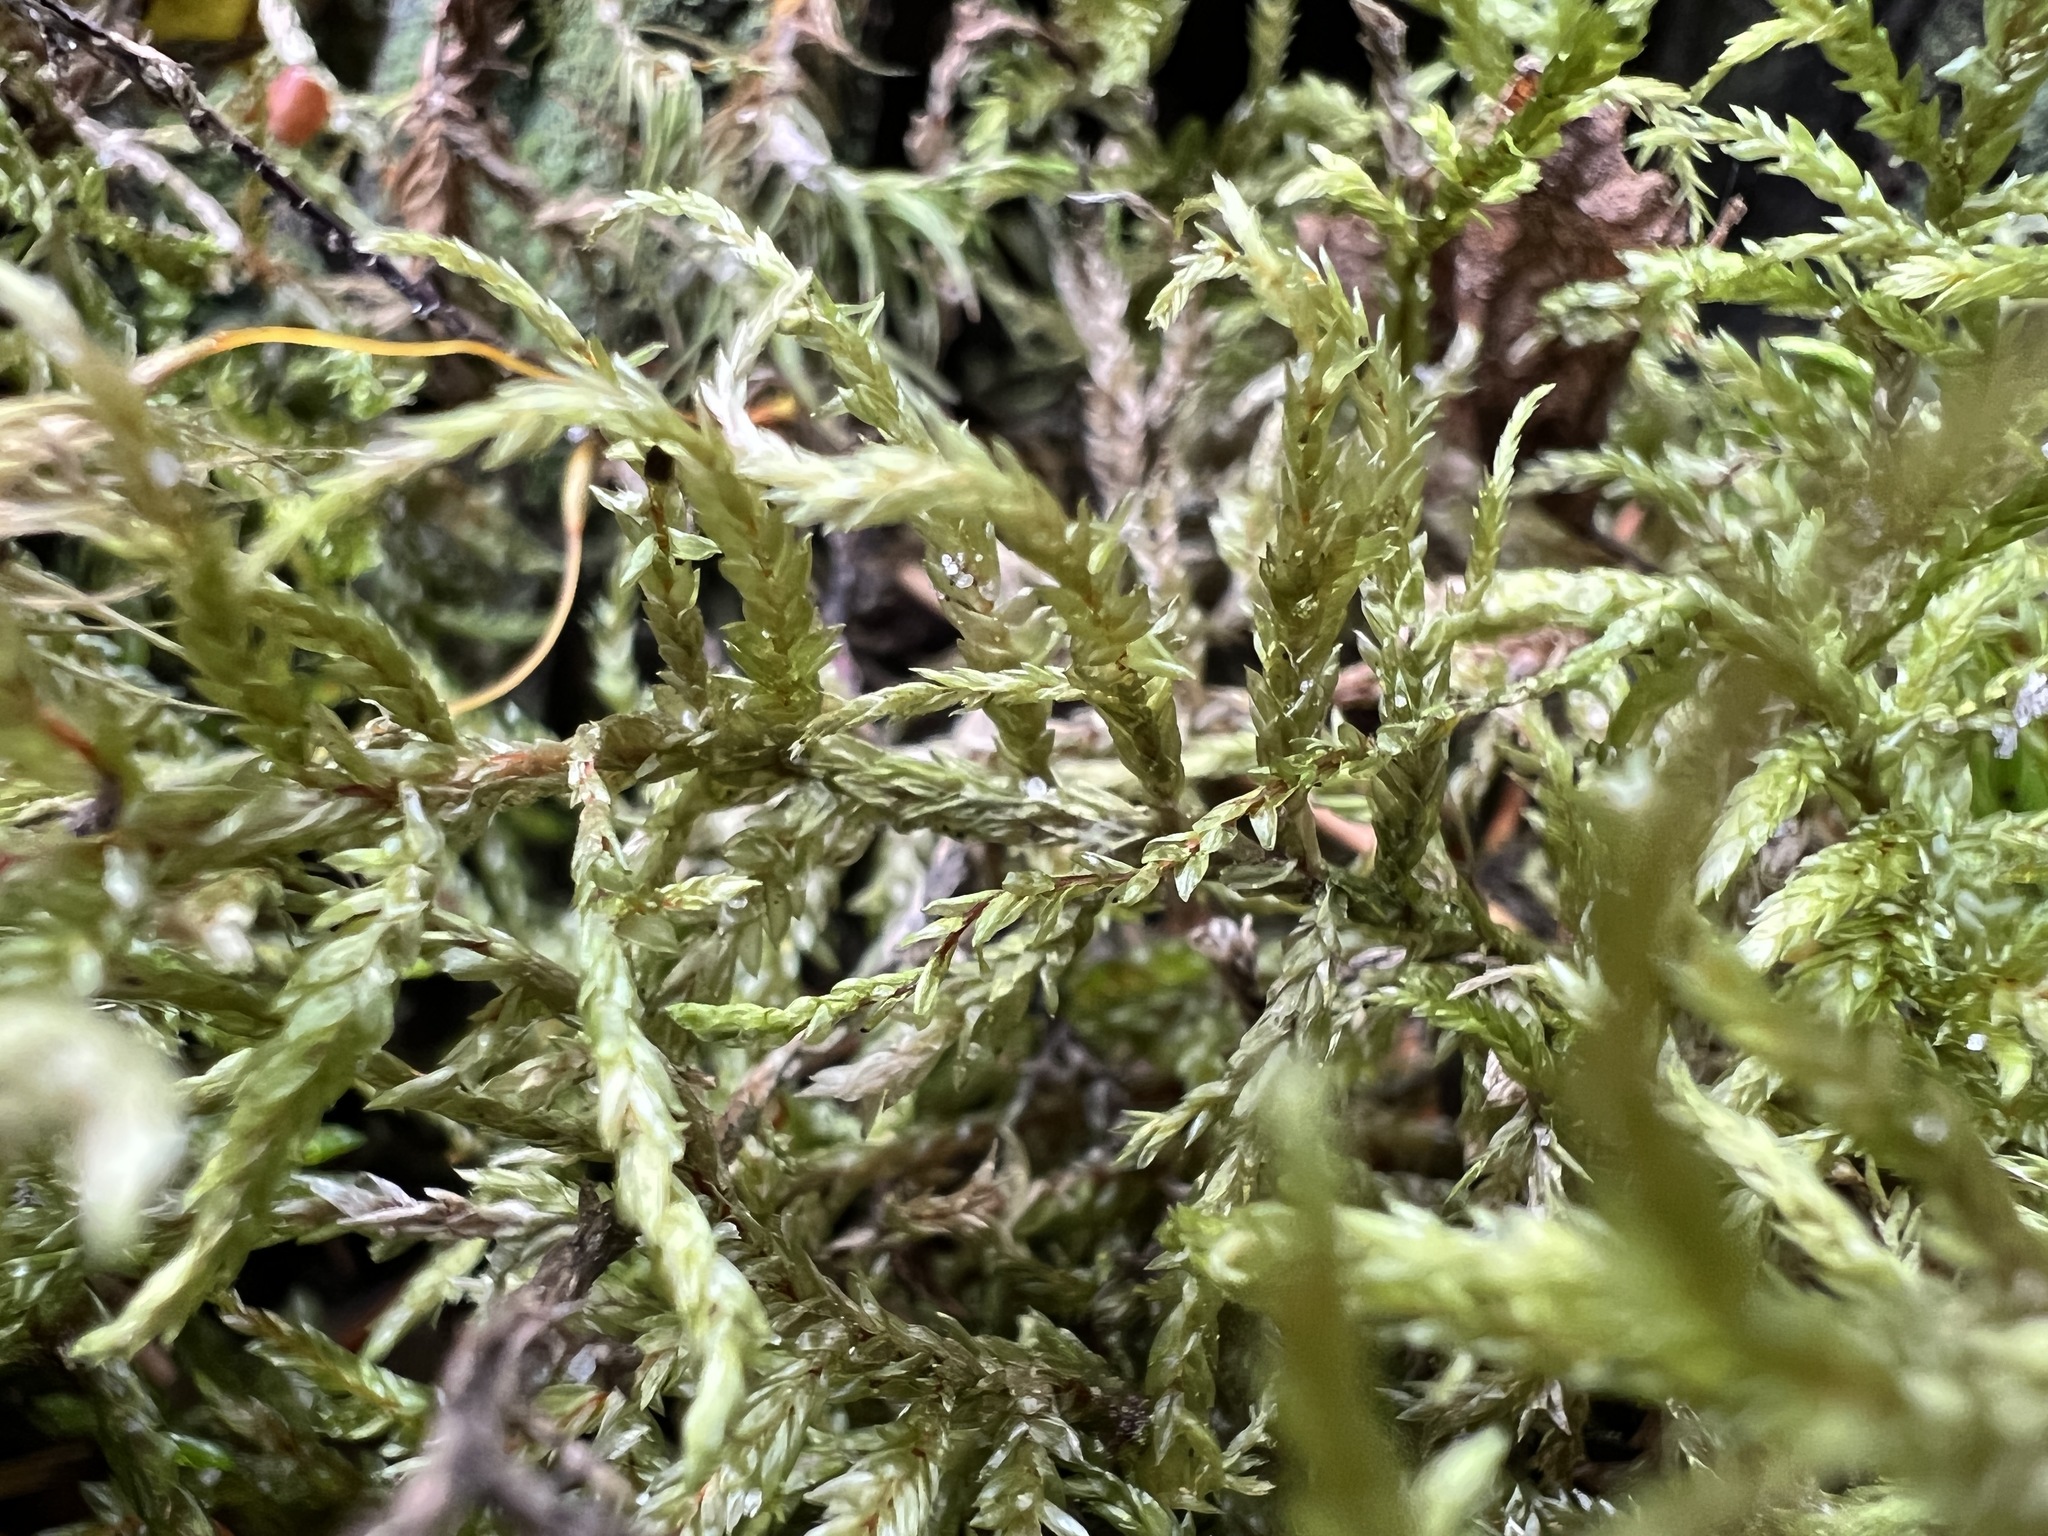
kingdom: Plantae
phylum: Bryophyta
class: Bryopsida
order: Hypnales
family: Hylocomiaceae
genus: Pleurozium
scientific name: Pleurozium schreberi
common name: Red-stemmed feather moss
